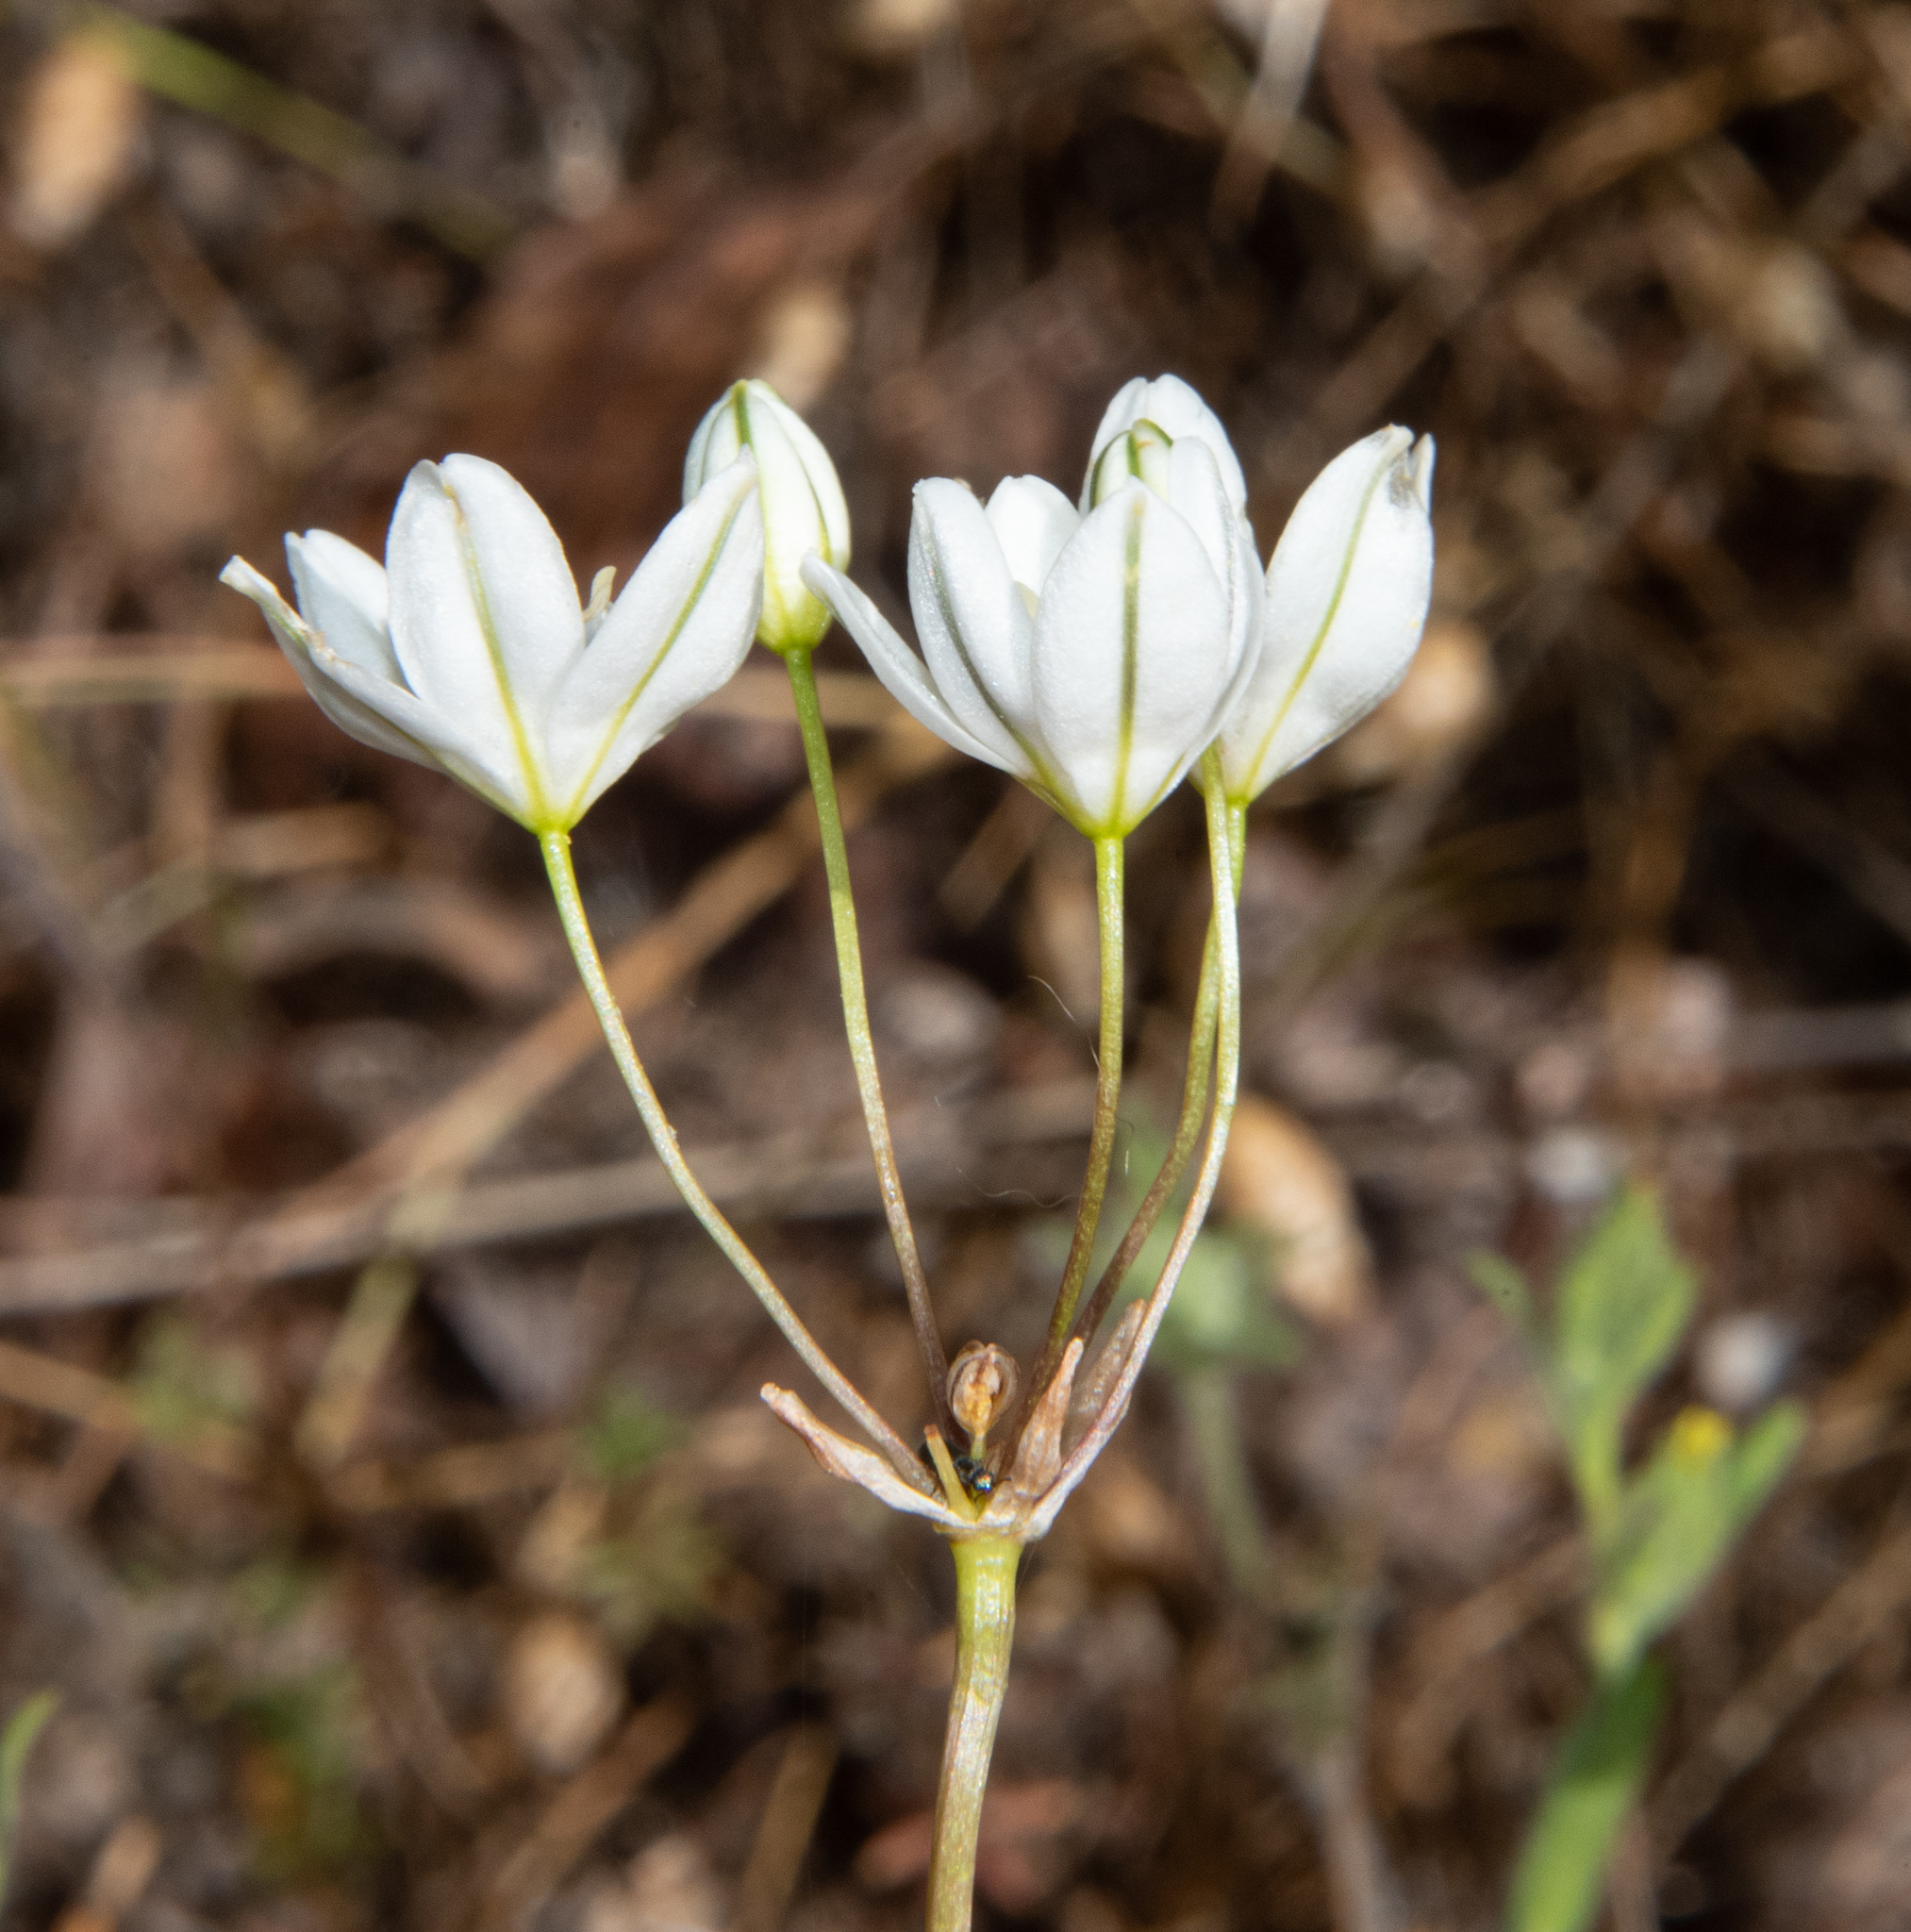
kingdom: Plantae
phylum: Tracheophyta
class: Liliopsida
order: Asparagales
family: Asparagaceae
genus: Triteleia
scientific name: Triteleia hyacinthina
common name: White brodiaea
